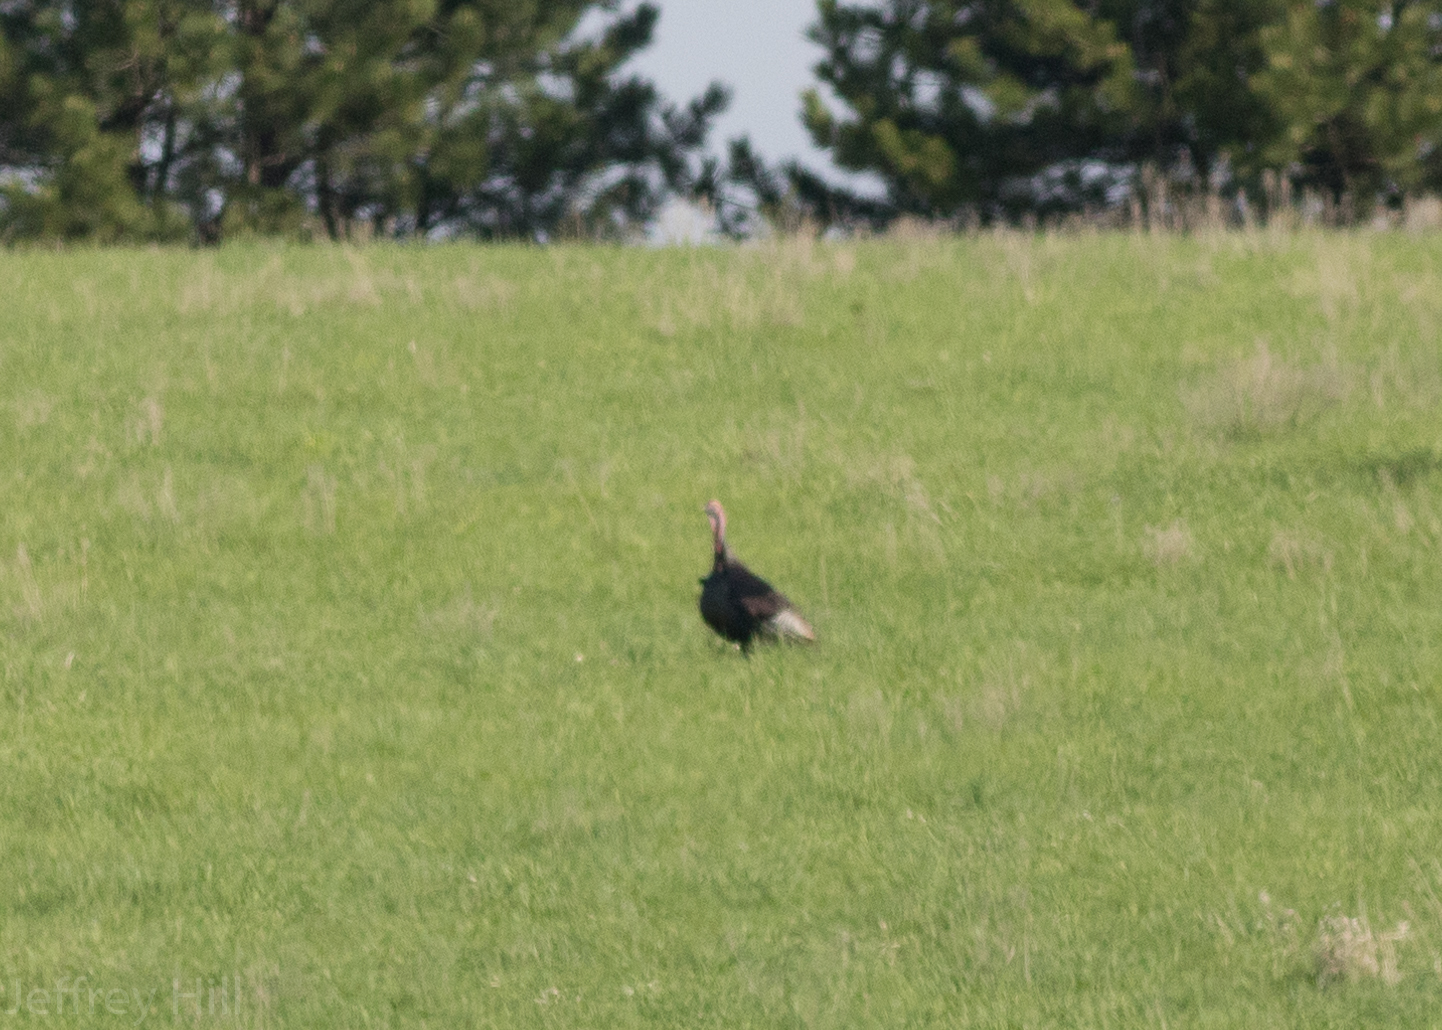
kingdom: Animalia
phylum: Chordata
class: Aves
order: Galliformes
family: Phasianidae
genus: Meleagris
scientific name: Meleagris gallopavo
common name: Wild turkey
